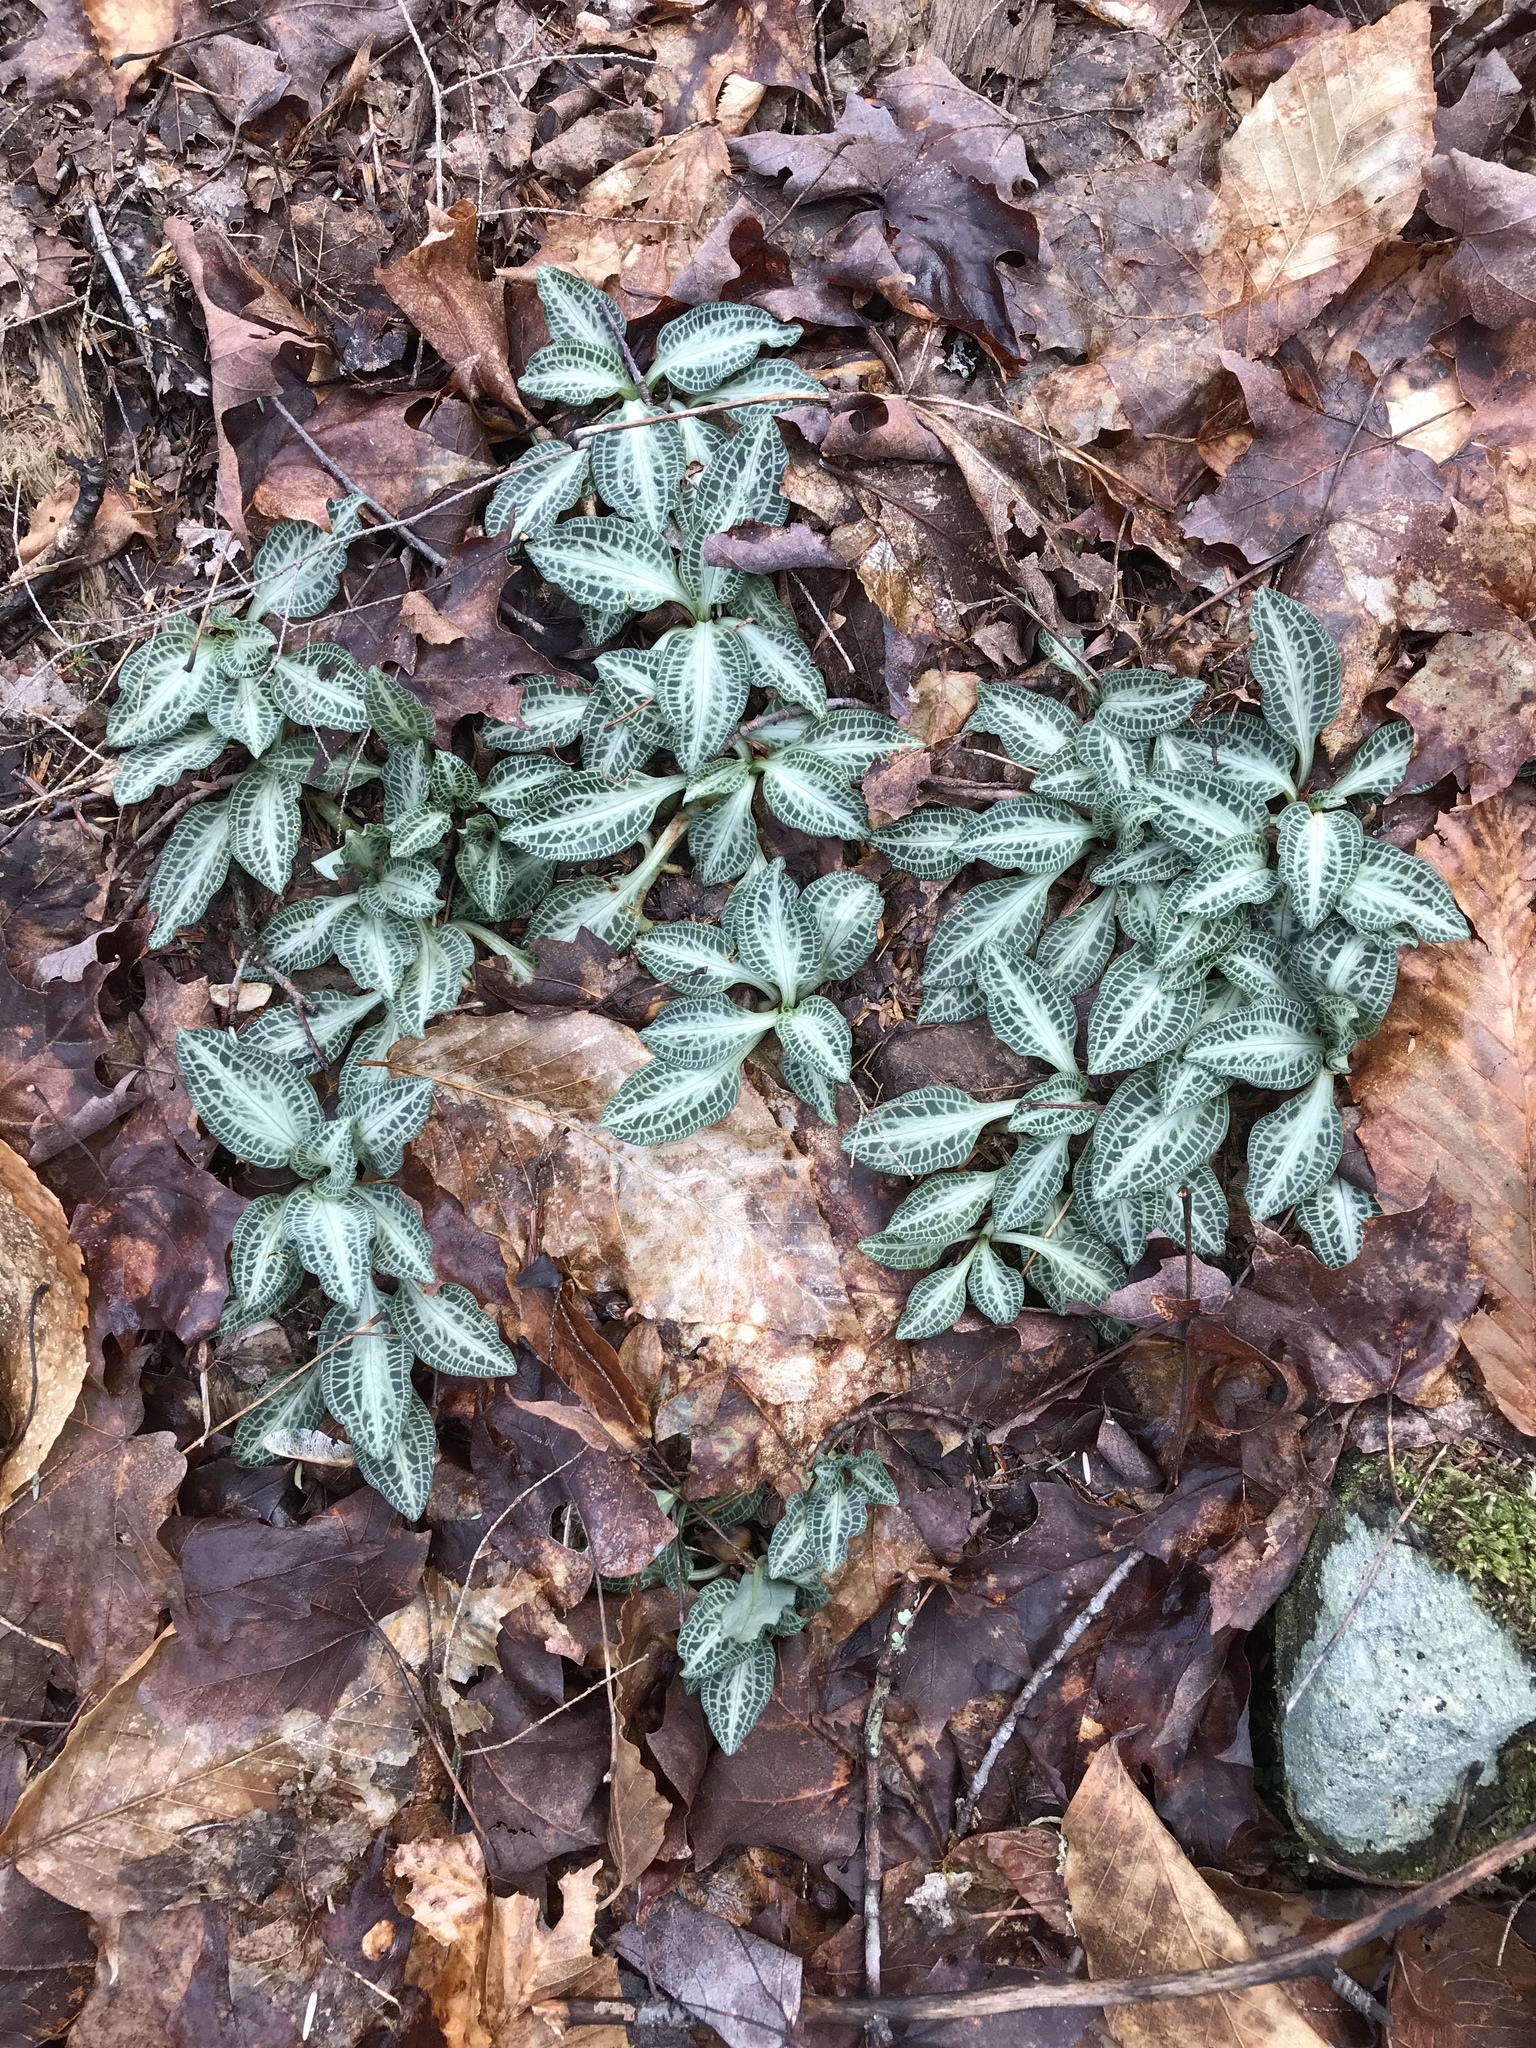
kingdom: Plantae
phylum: Tracheophyta
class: Liliopsida
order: Asparagales
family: Orchidaceae
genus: Goodyera
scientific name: Goodyera pubescens
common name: Downy rattlesnake-plantain
